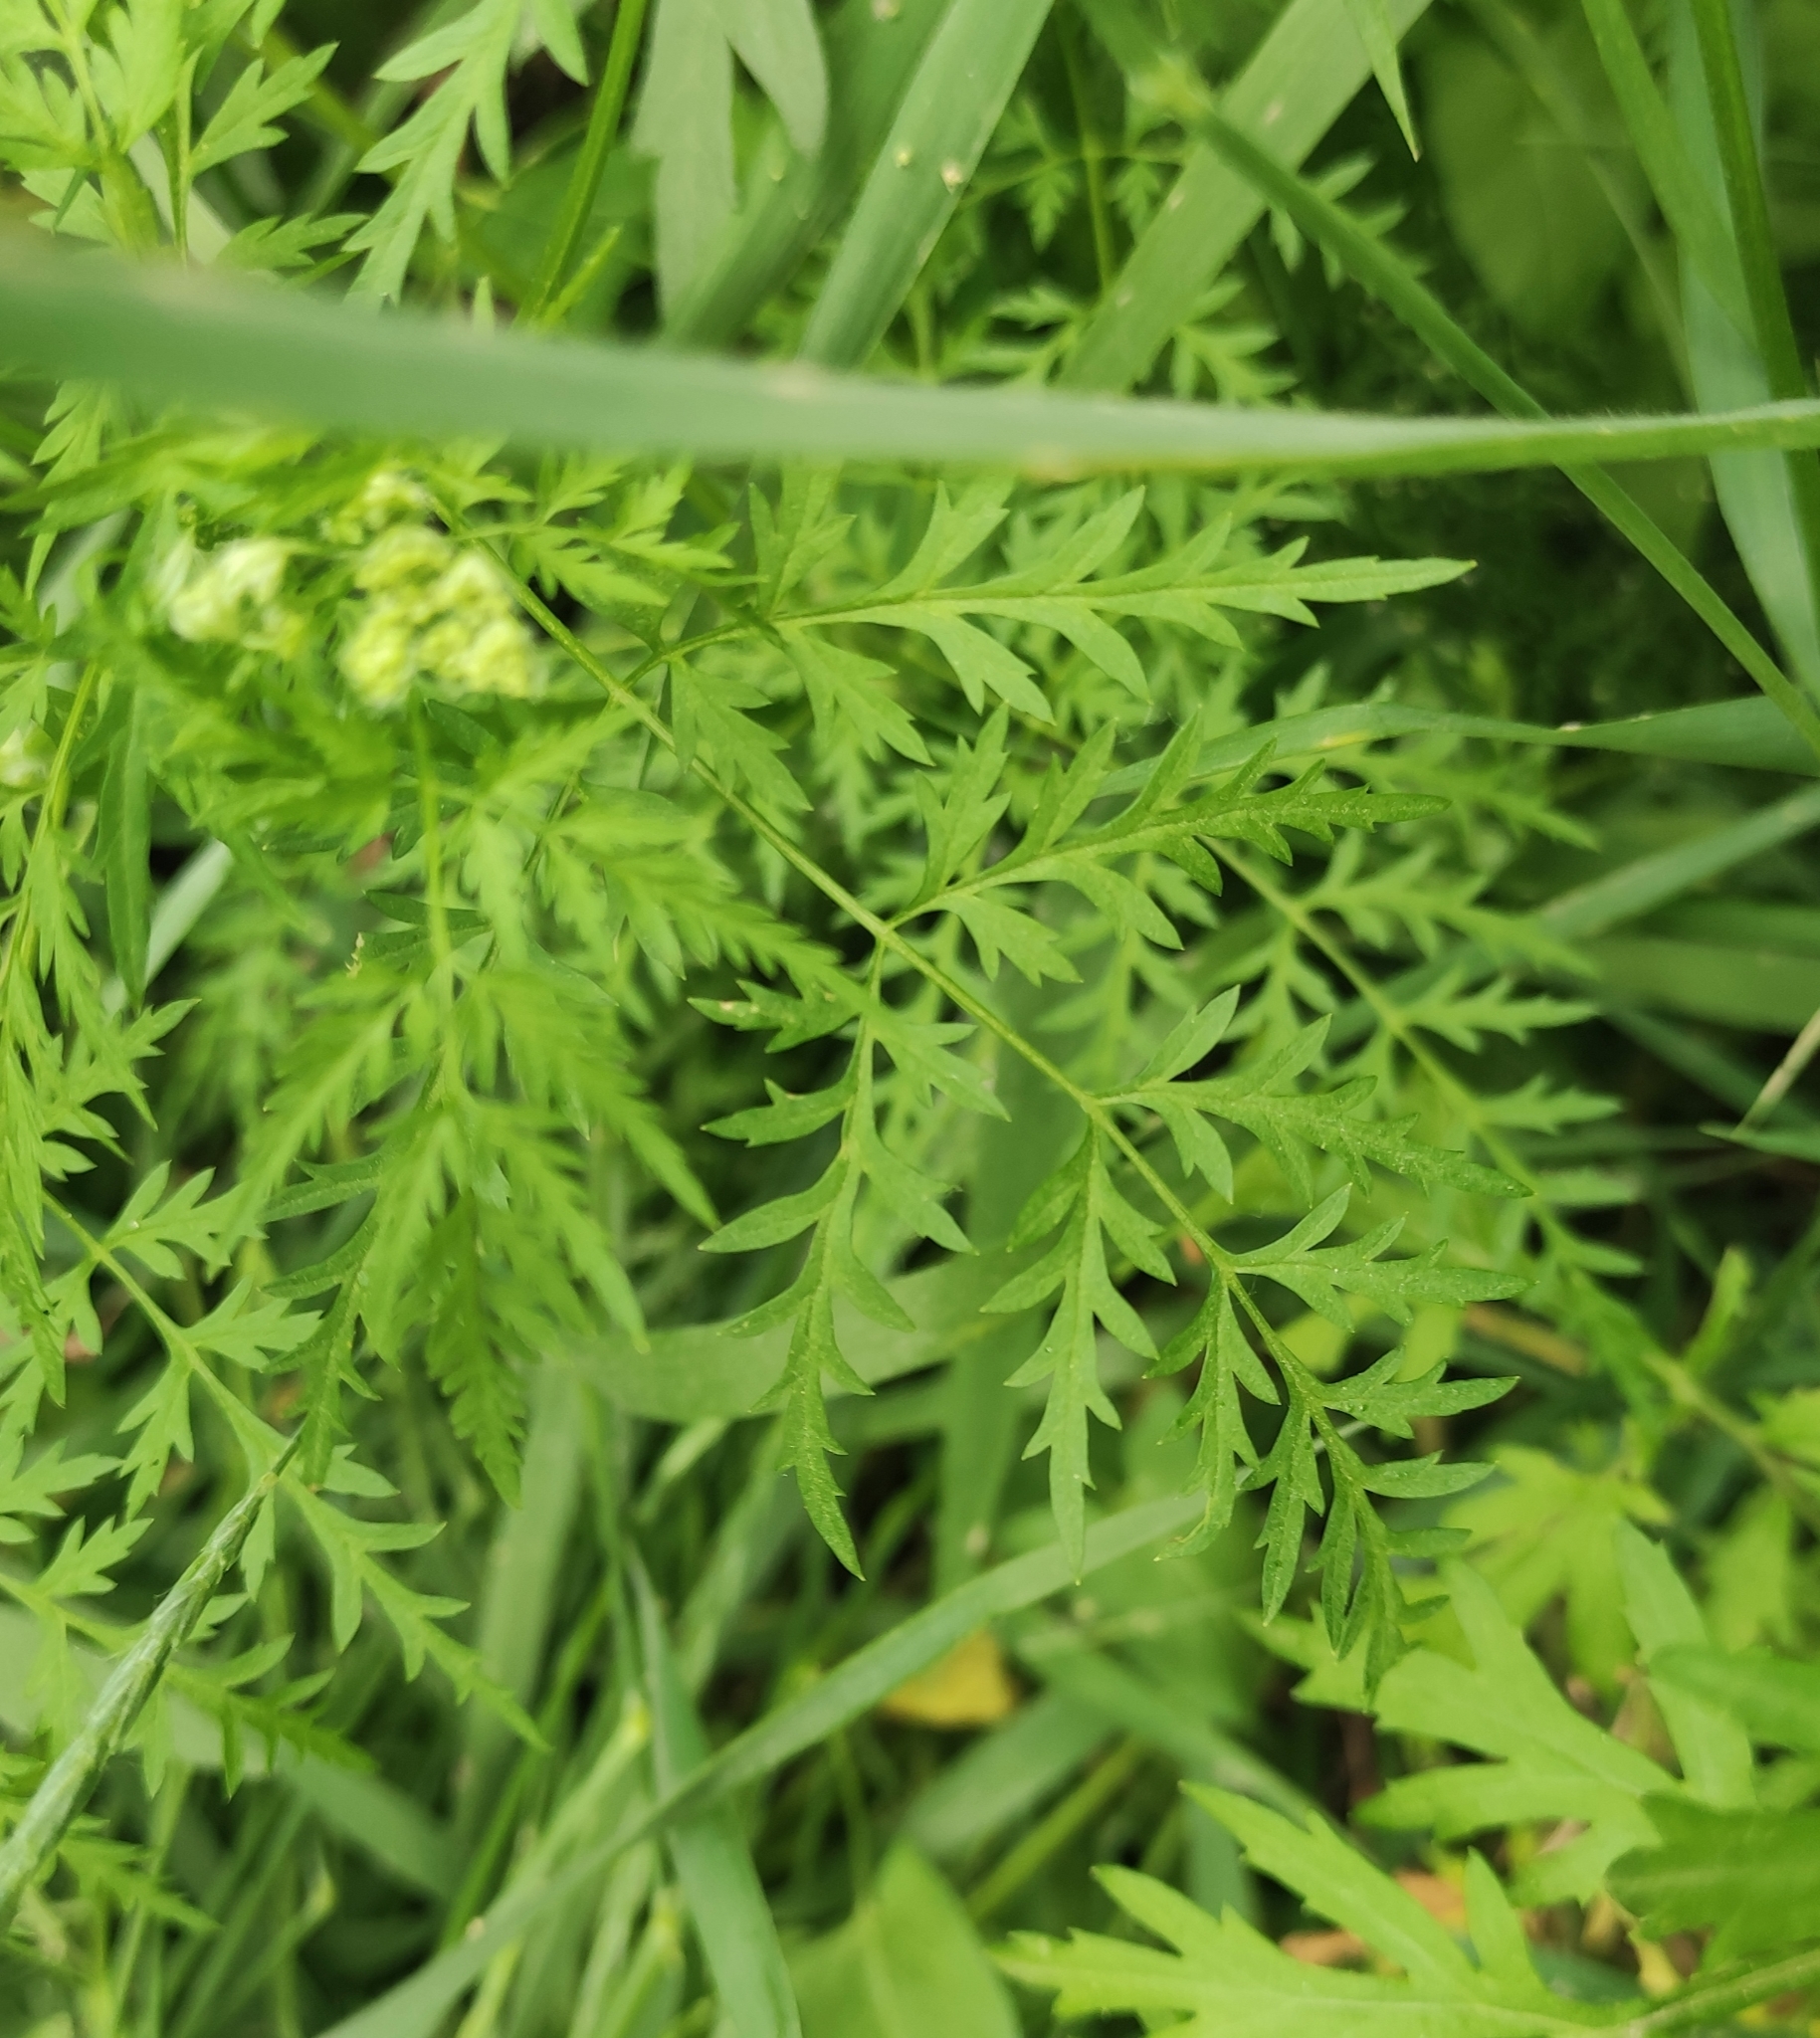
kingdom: Plantae
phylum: Tracheophyta
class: Magnoliopsida
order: Apiales
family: Apiaceae
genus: Sphallerocarpus
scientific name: Sphallerocarpus gracilis
